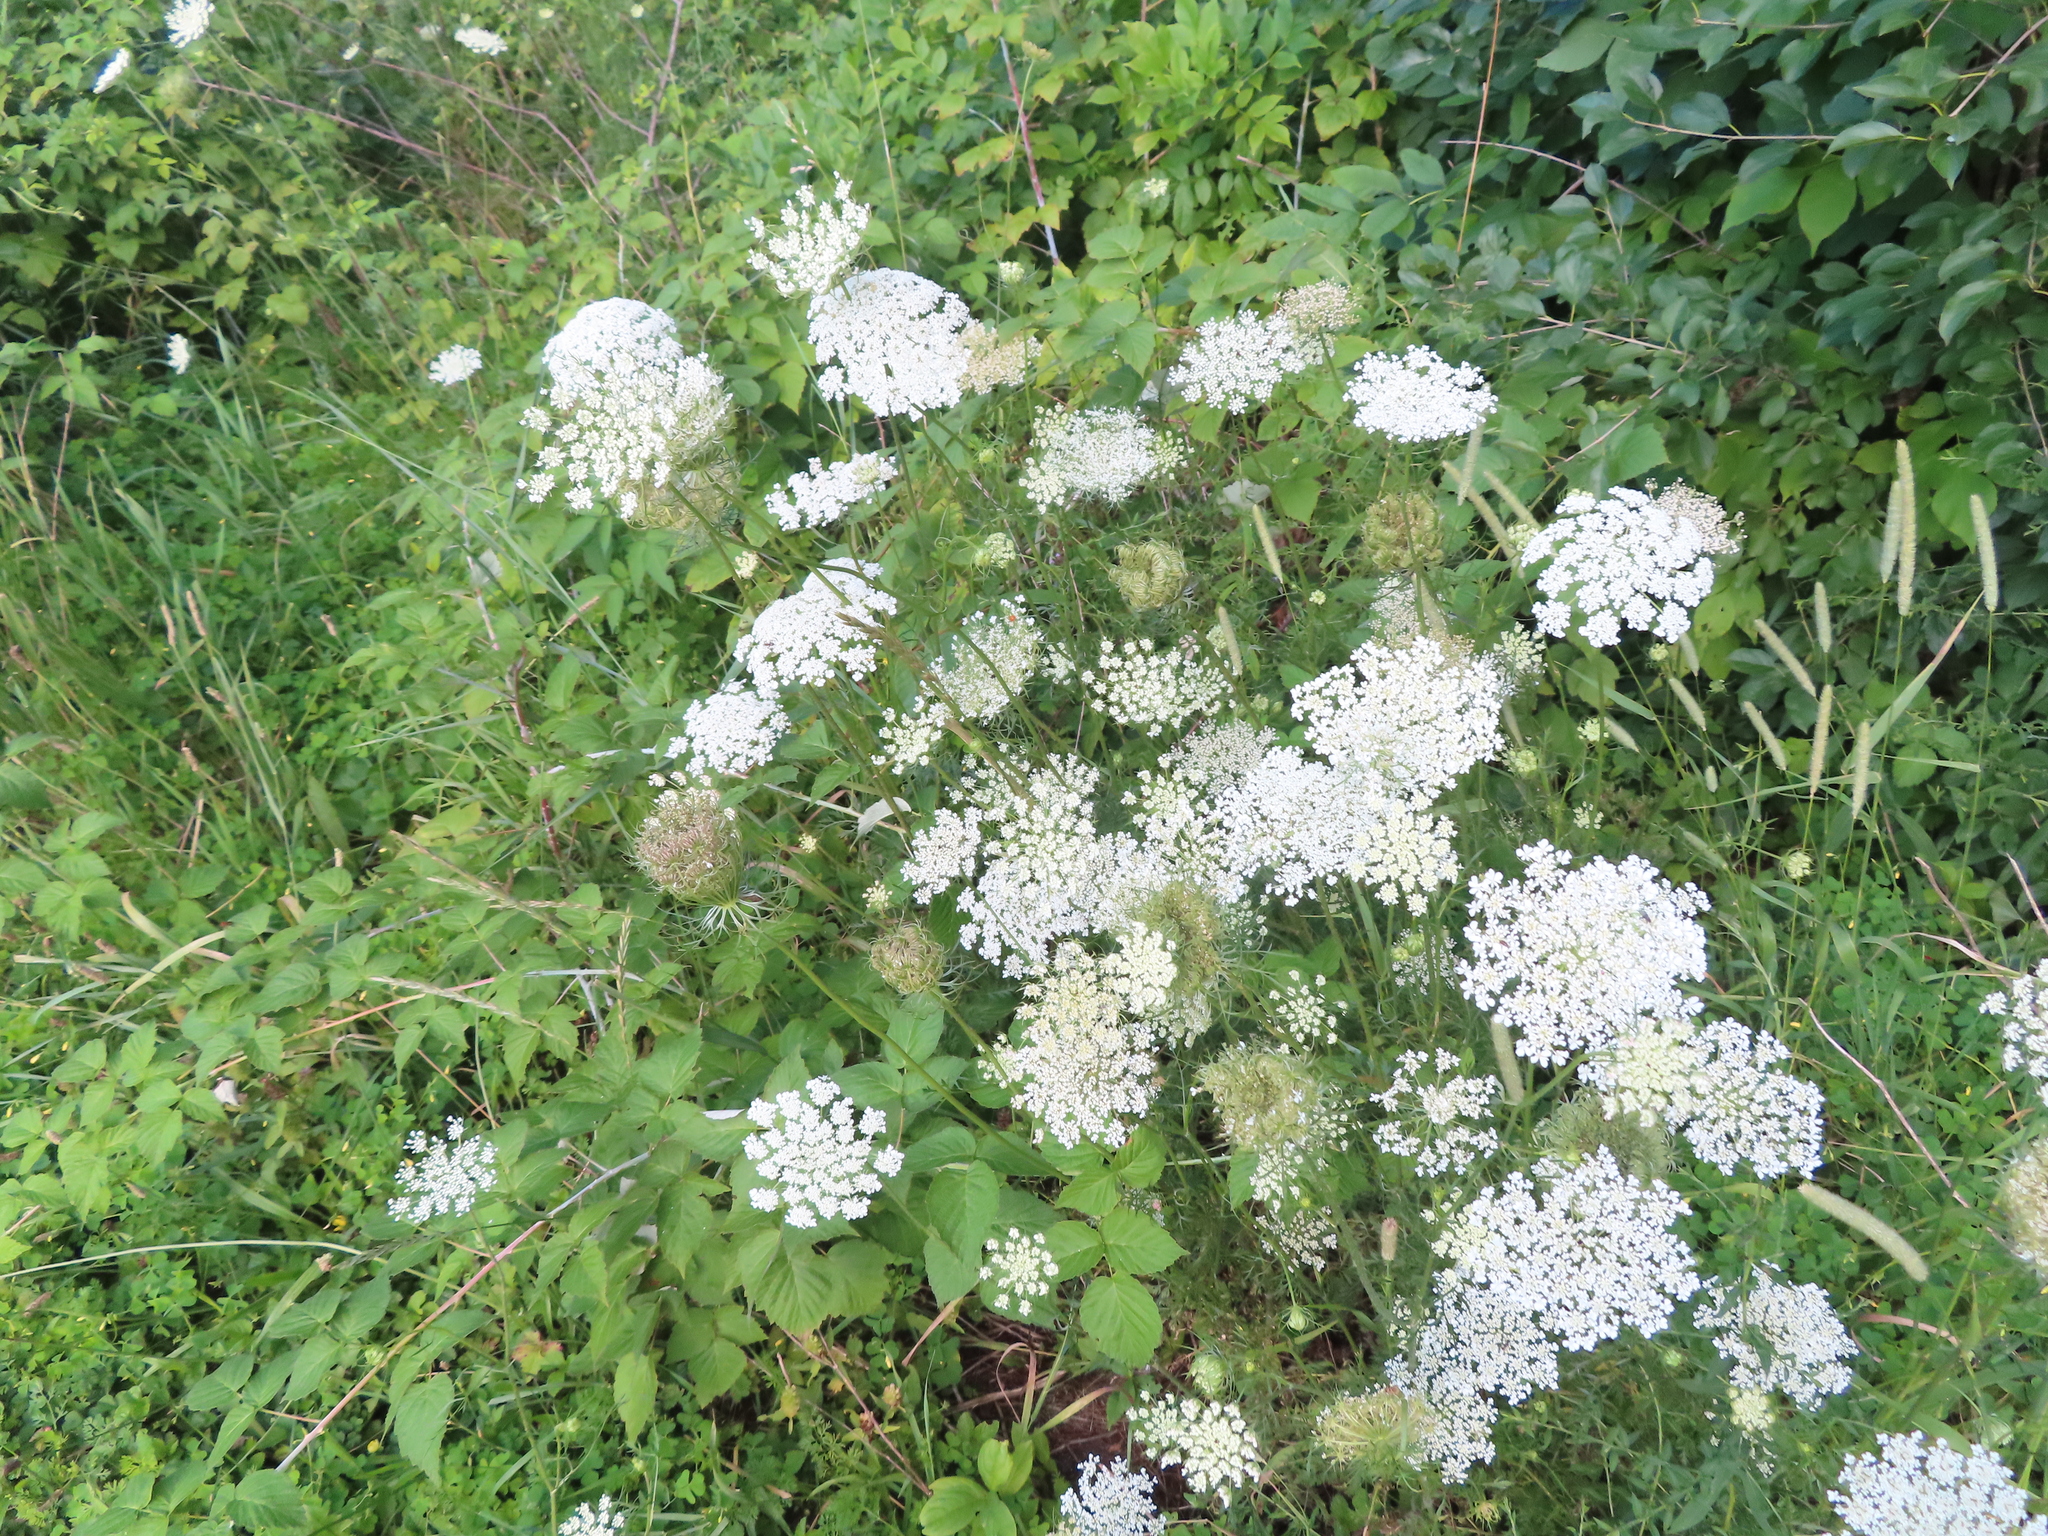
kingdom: Plantae
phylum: Tracheophyta
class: Magnoliopsida
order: Apiales
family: Apiaceae
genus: Daucus
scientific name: Daucus carota
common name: Wild carrot
